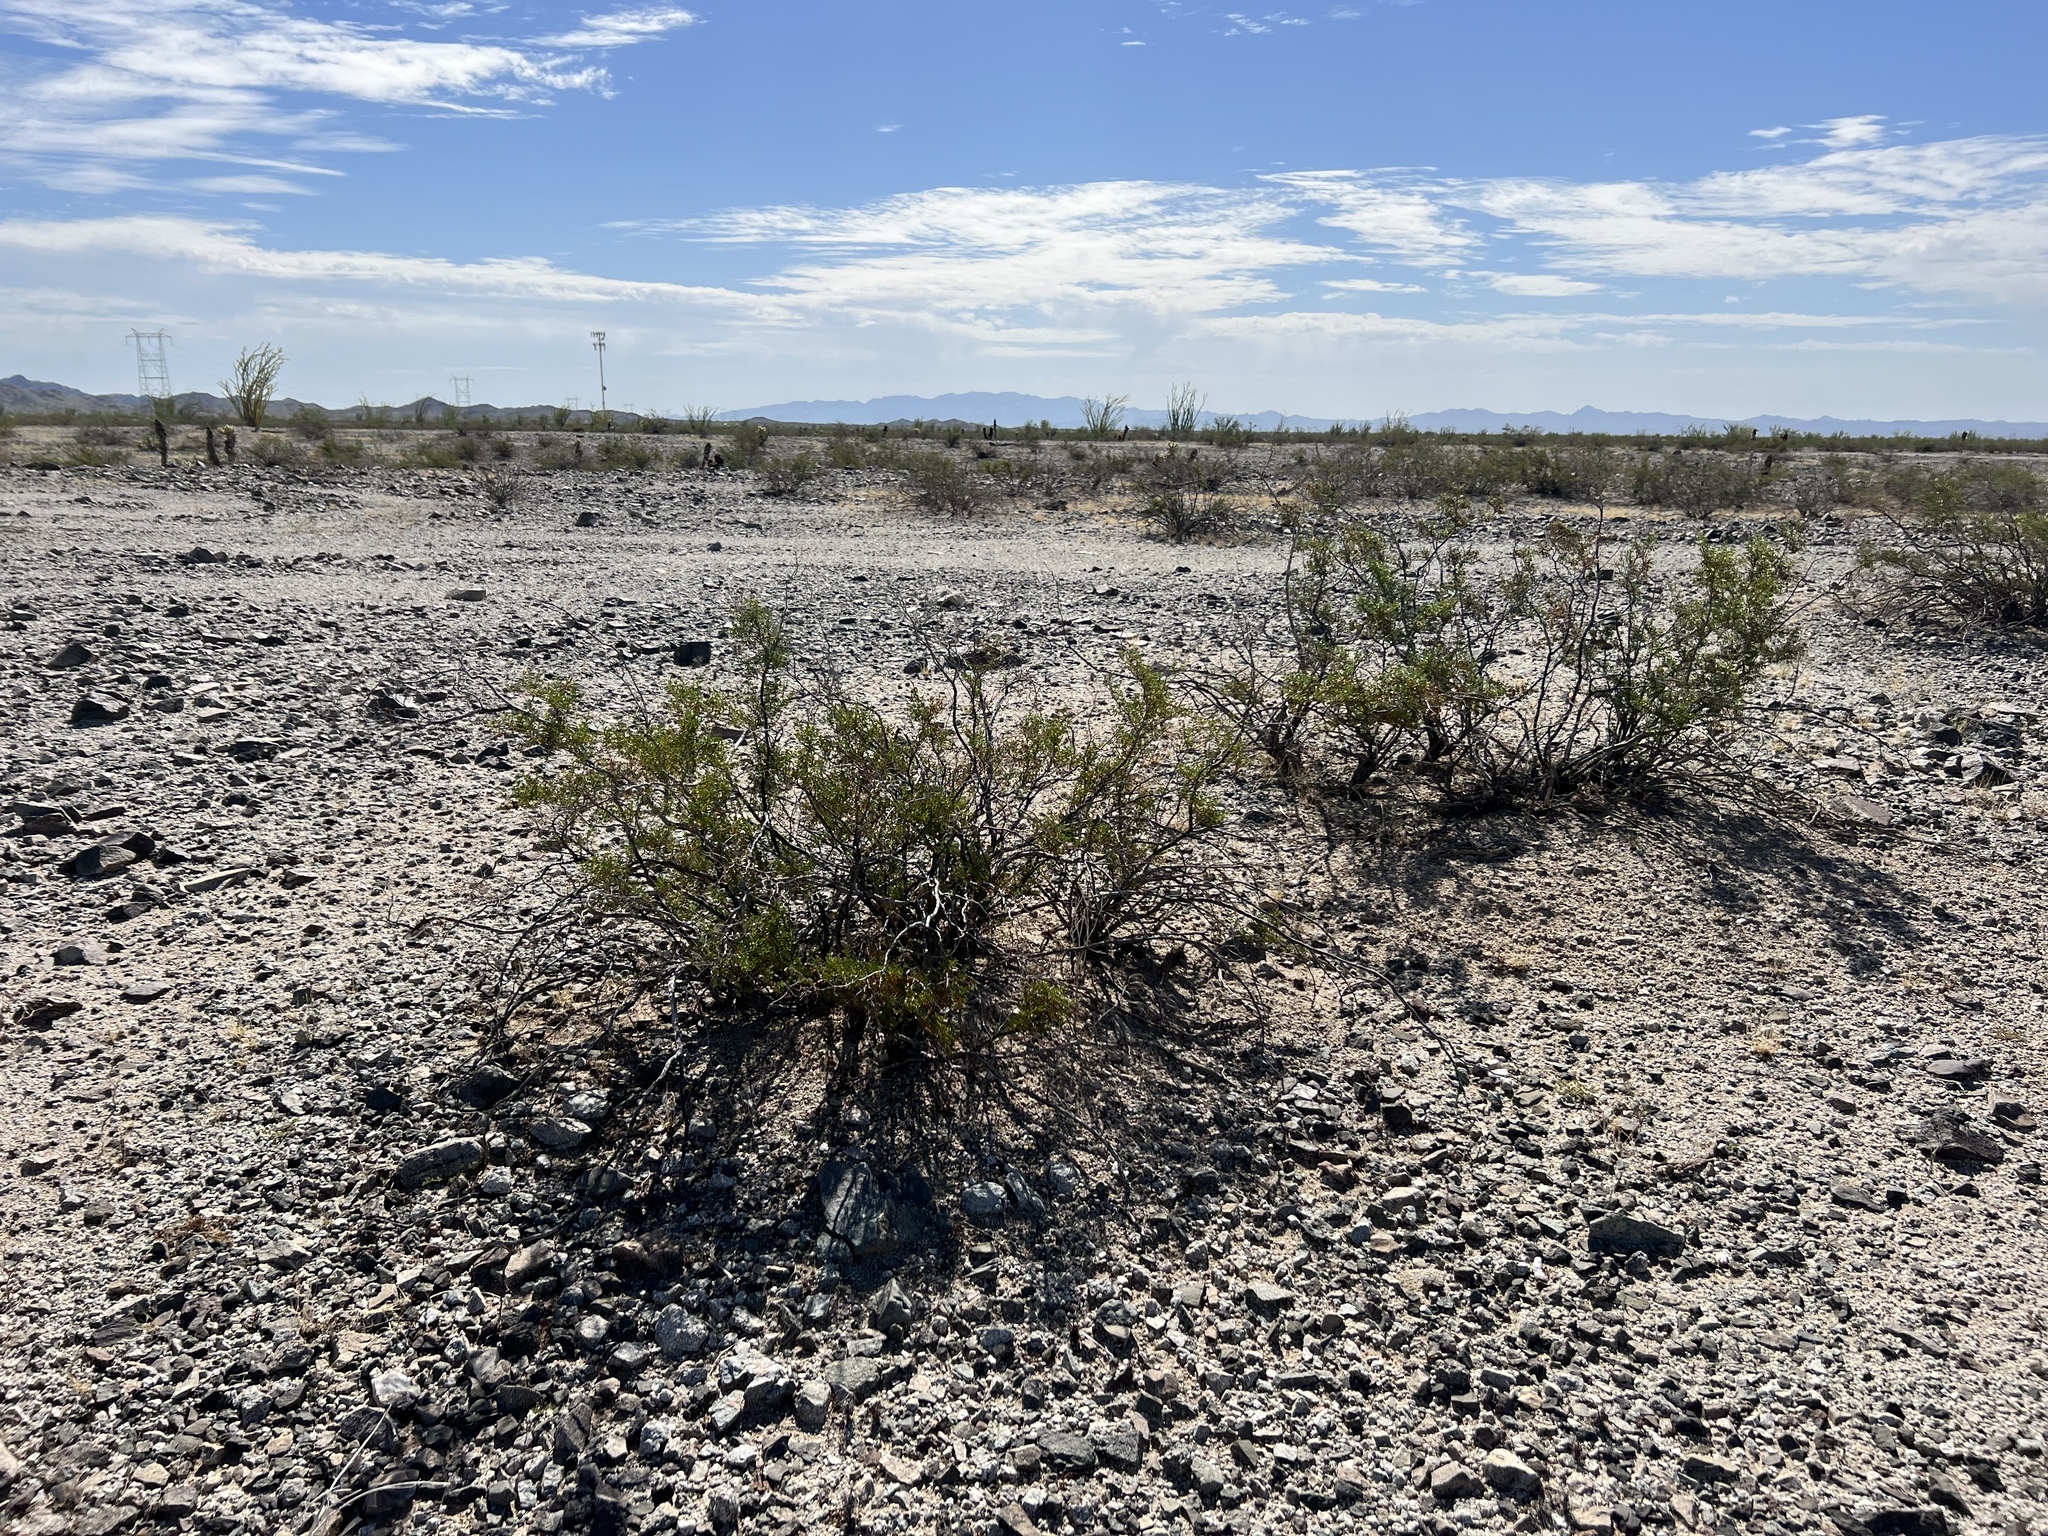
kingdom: Plantae
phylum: Tracheophyta
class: Magnoliopsida
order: Zygophyllales
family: Zygophyllaceae
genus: Larrea
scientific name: Larrea tridentata
